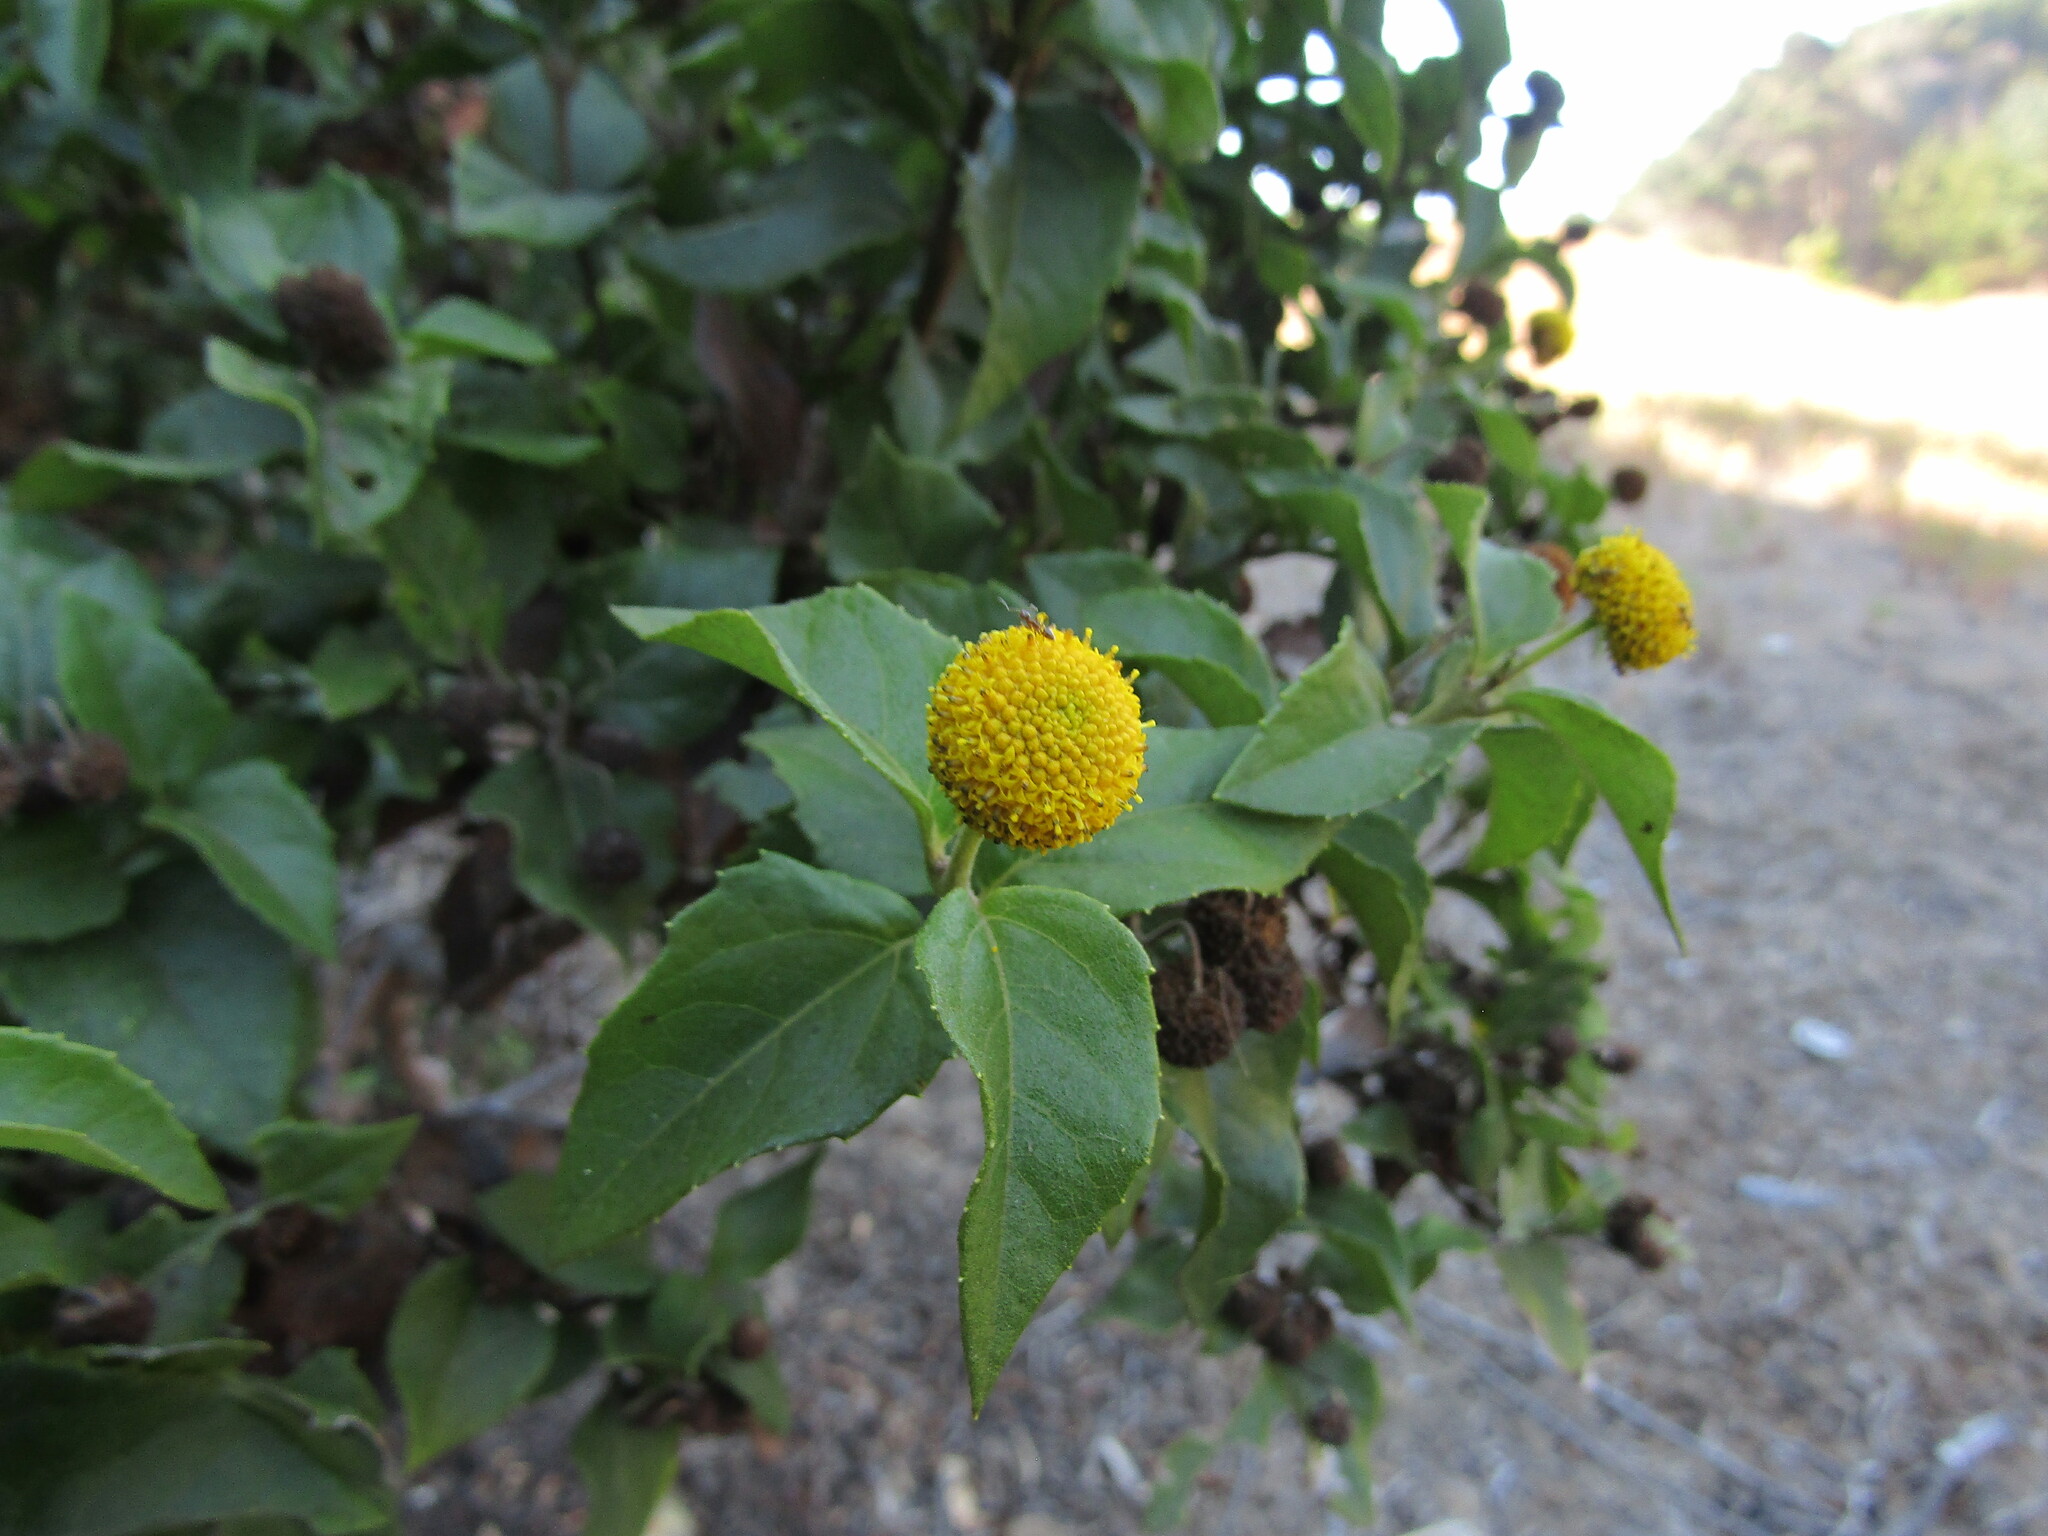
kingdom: Plantae
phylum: Tracheophyta
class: Magnoliopsida
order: Asterales
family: Asteraceae
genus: Podanthus
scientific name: Podanthus ovatifolius
